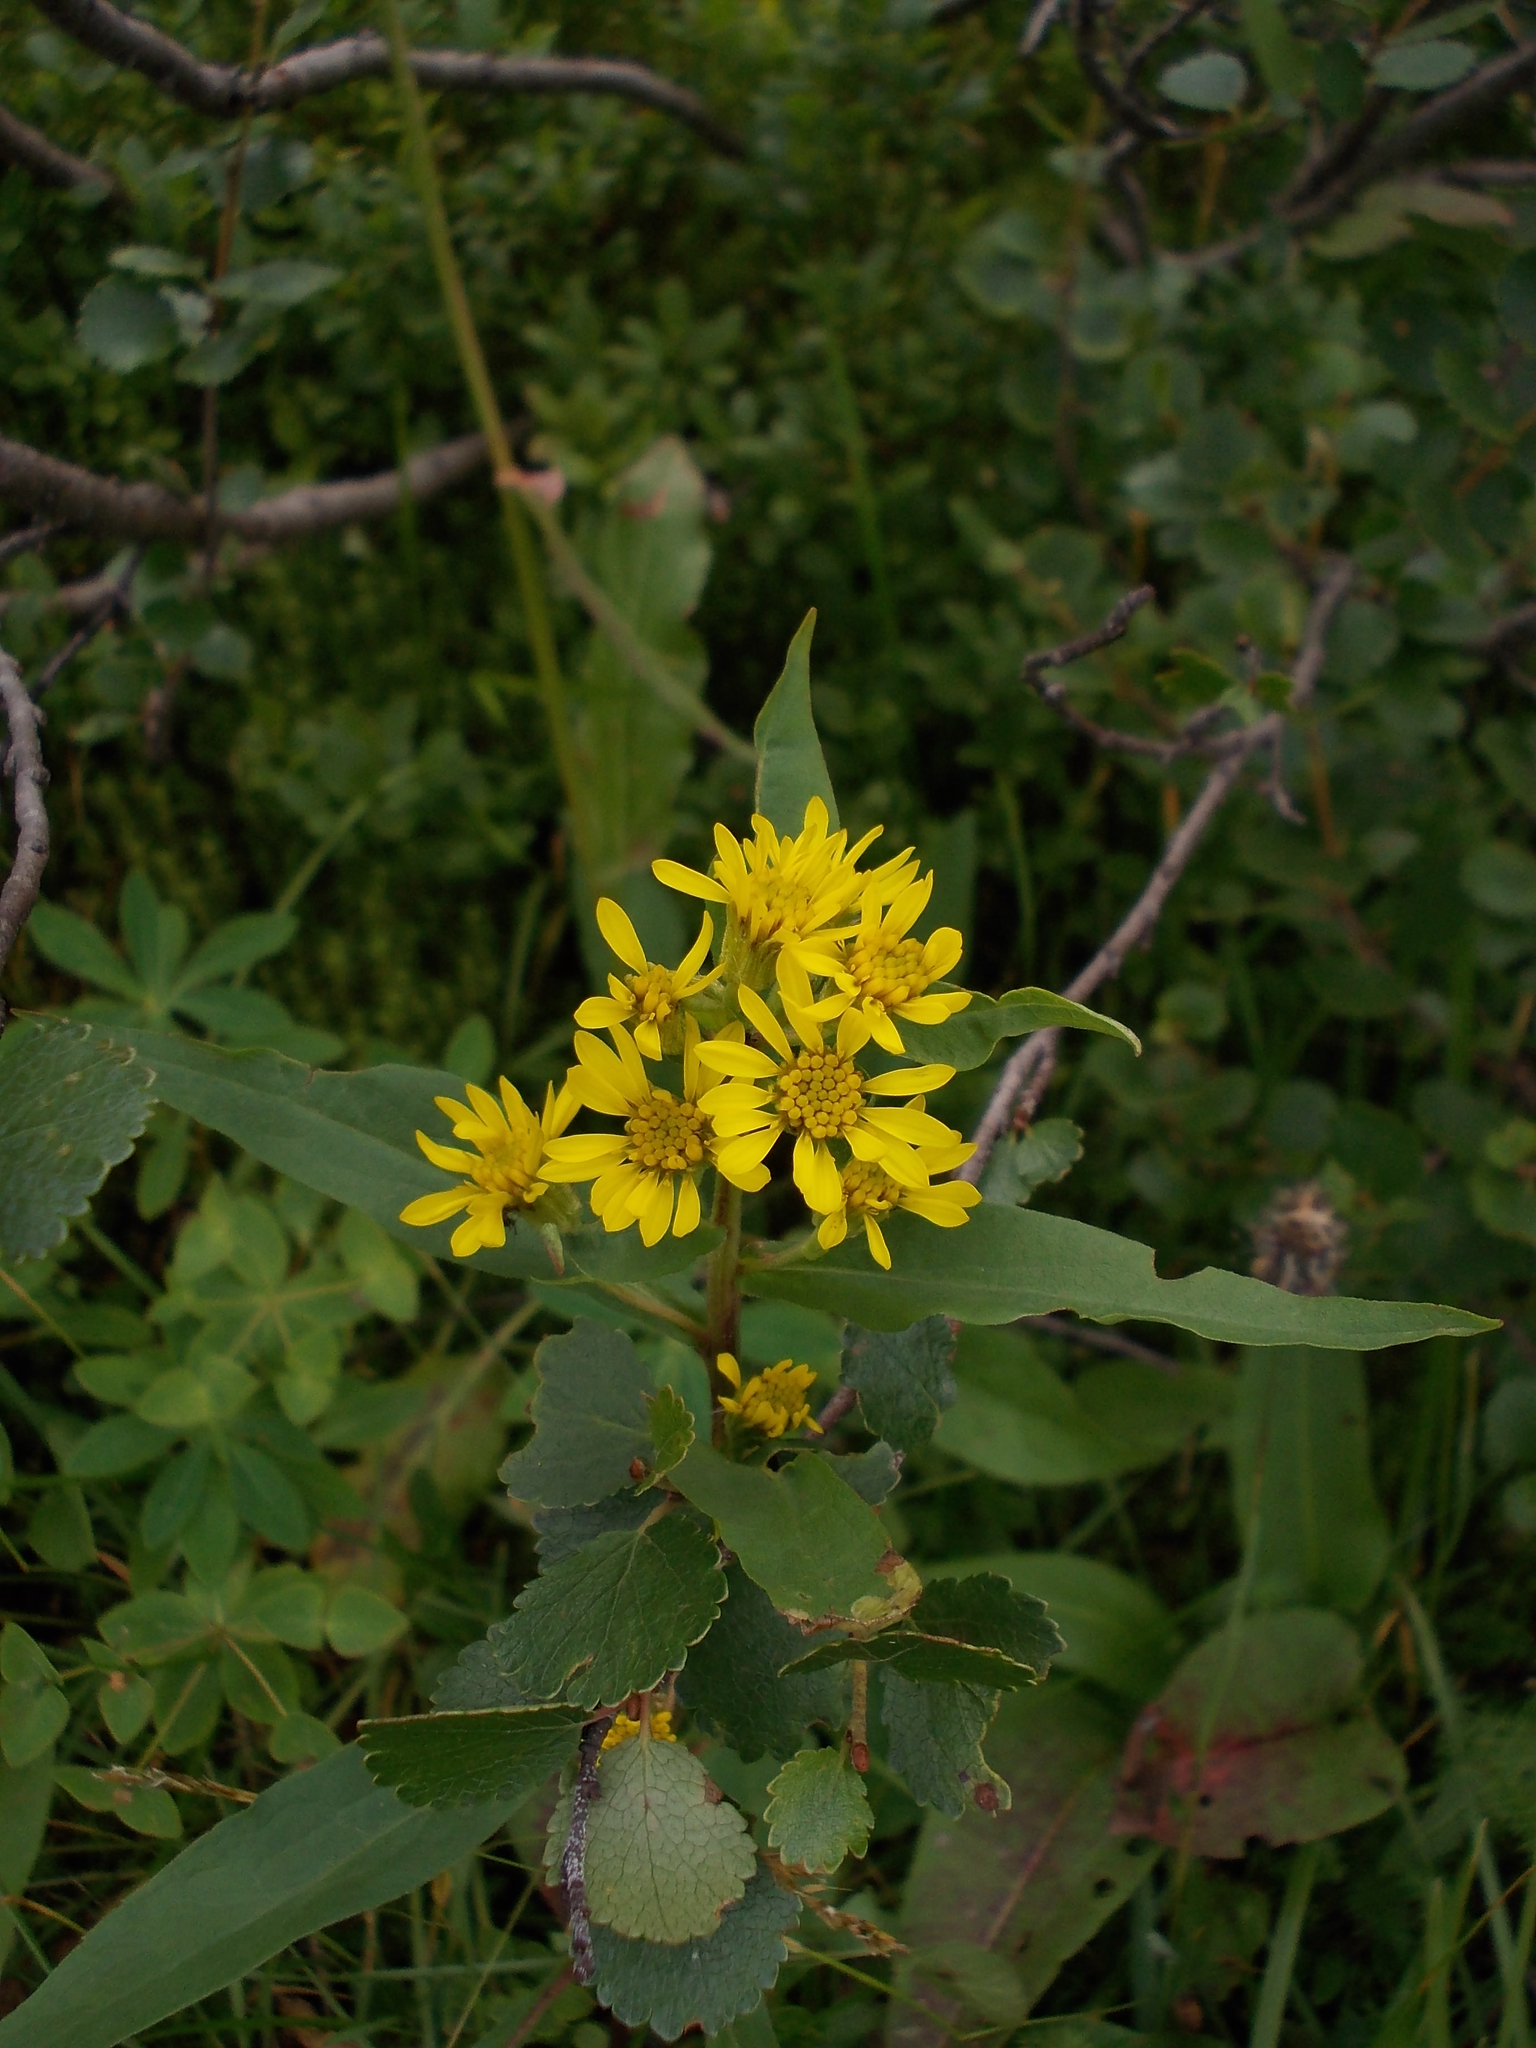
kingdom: Plantae
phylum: Tracheophyta
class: Magnoliopsida
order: Asterales
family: Asteraceae
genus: Solidago
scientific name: Solidago virgaurea
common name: Goldenrod
